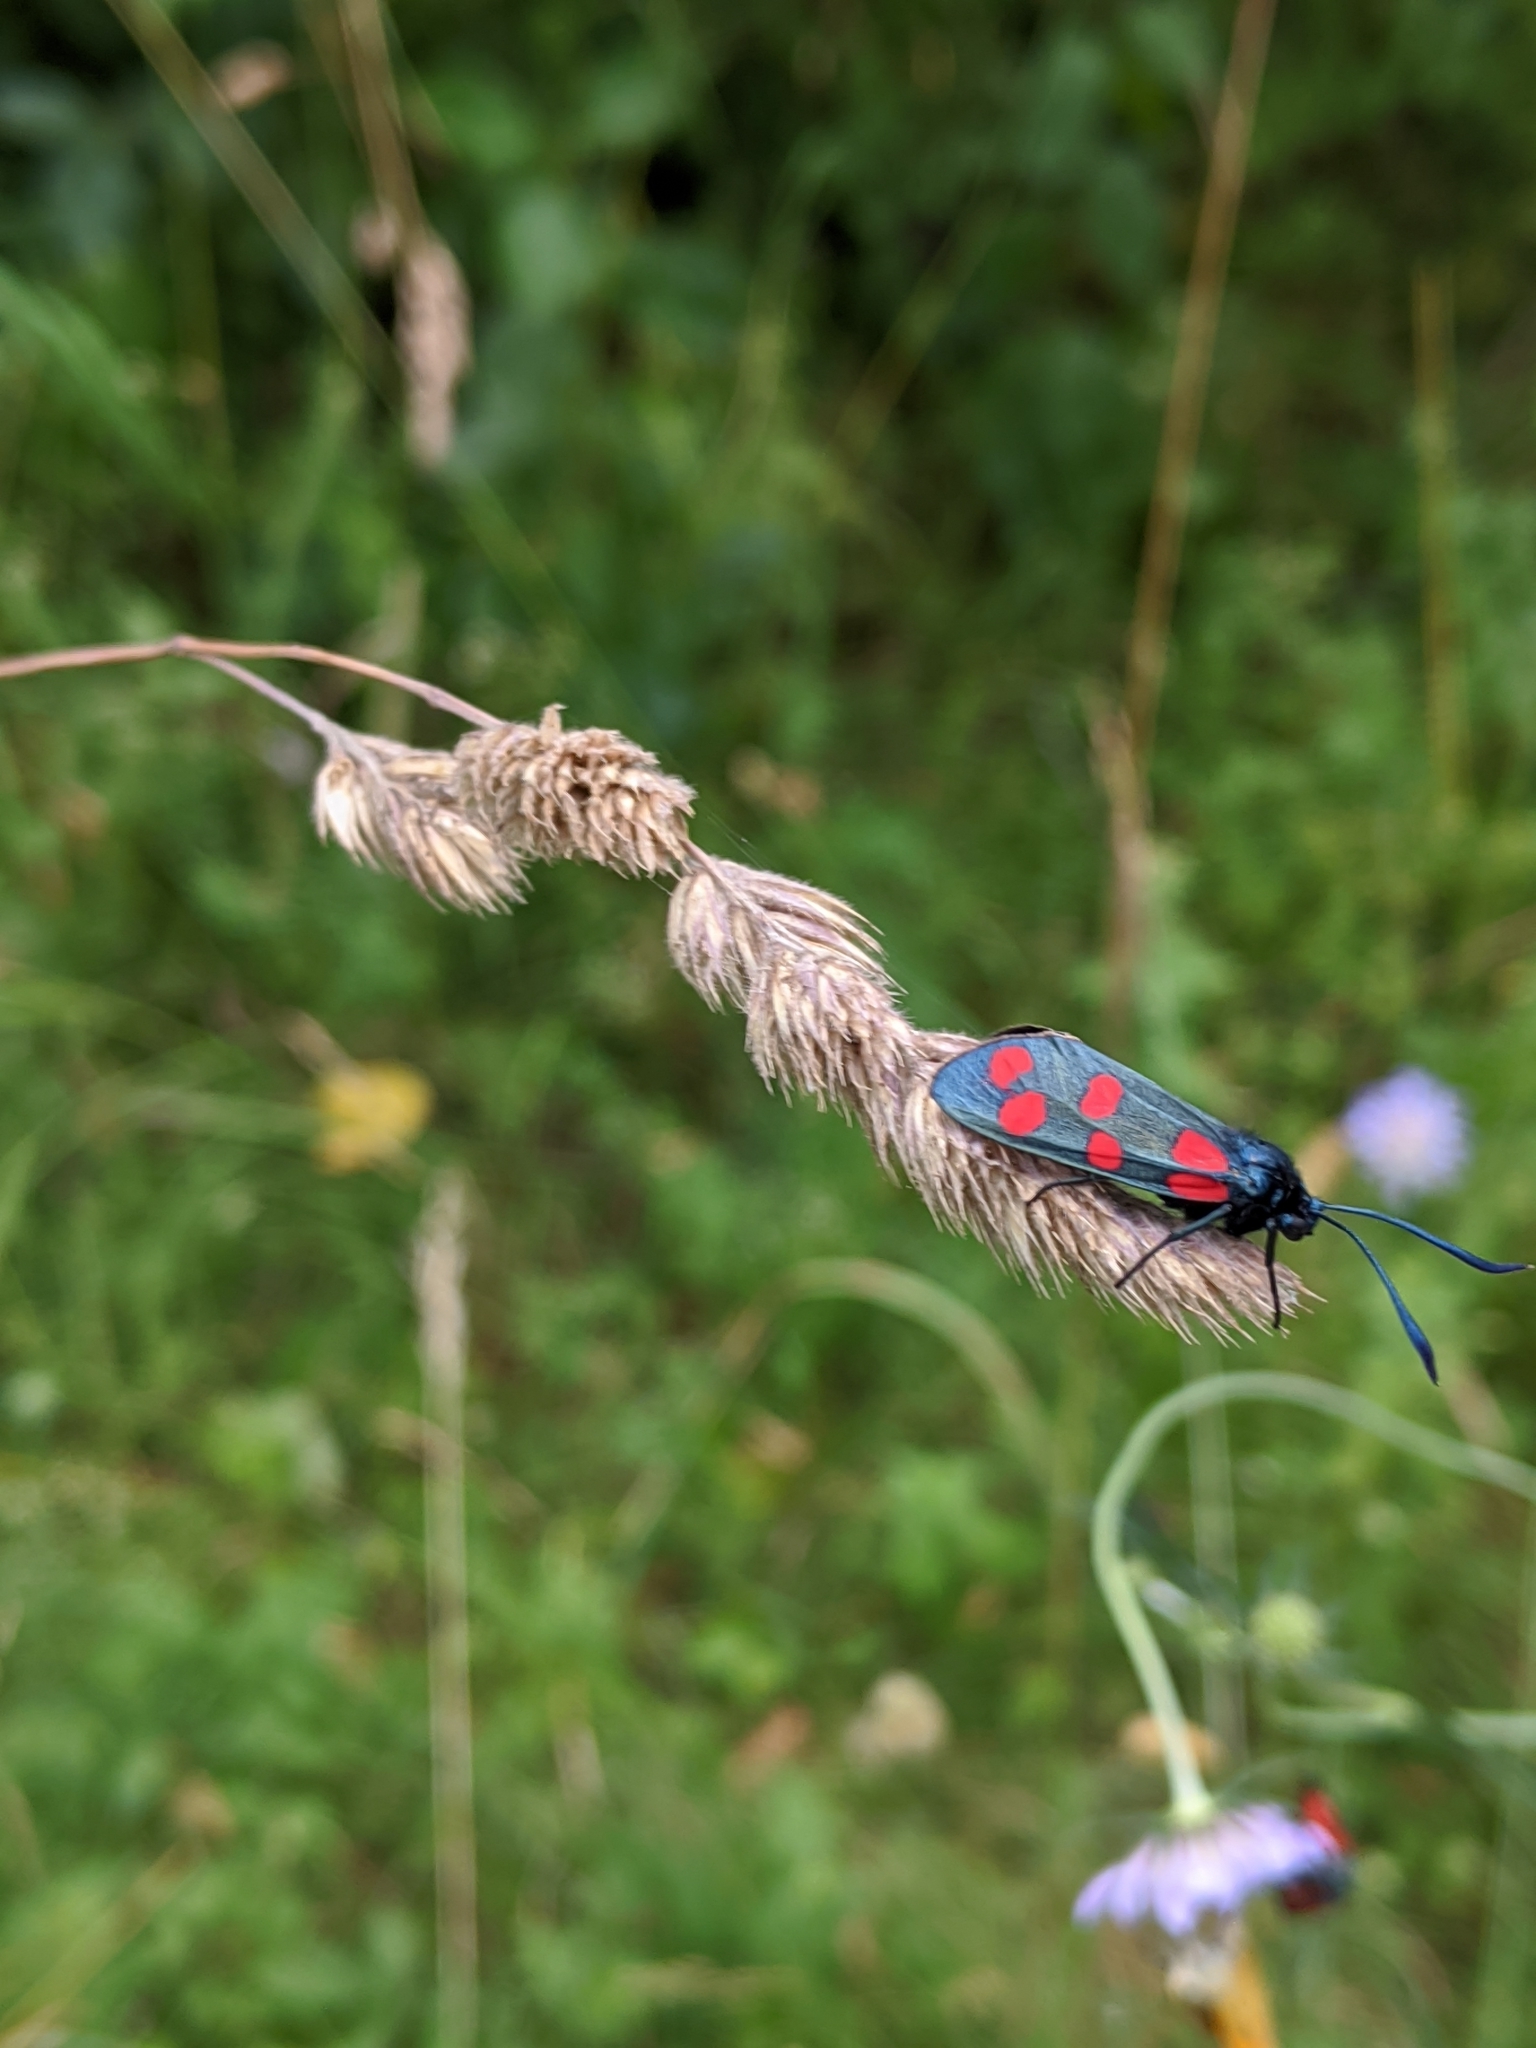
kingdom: Animalia
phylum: Arthropoda
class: Insecta
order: Lepidoptera
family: Zygaenidae
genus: Zygaena
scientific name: Zygaena filipendulae
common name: Six-spot burnet
